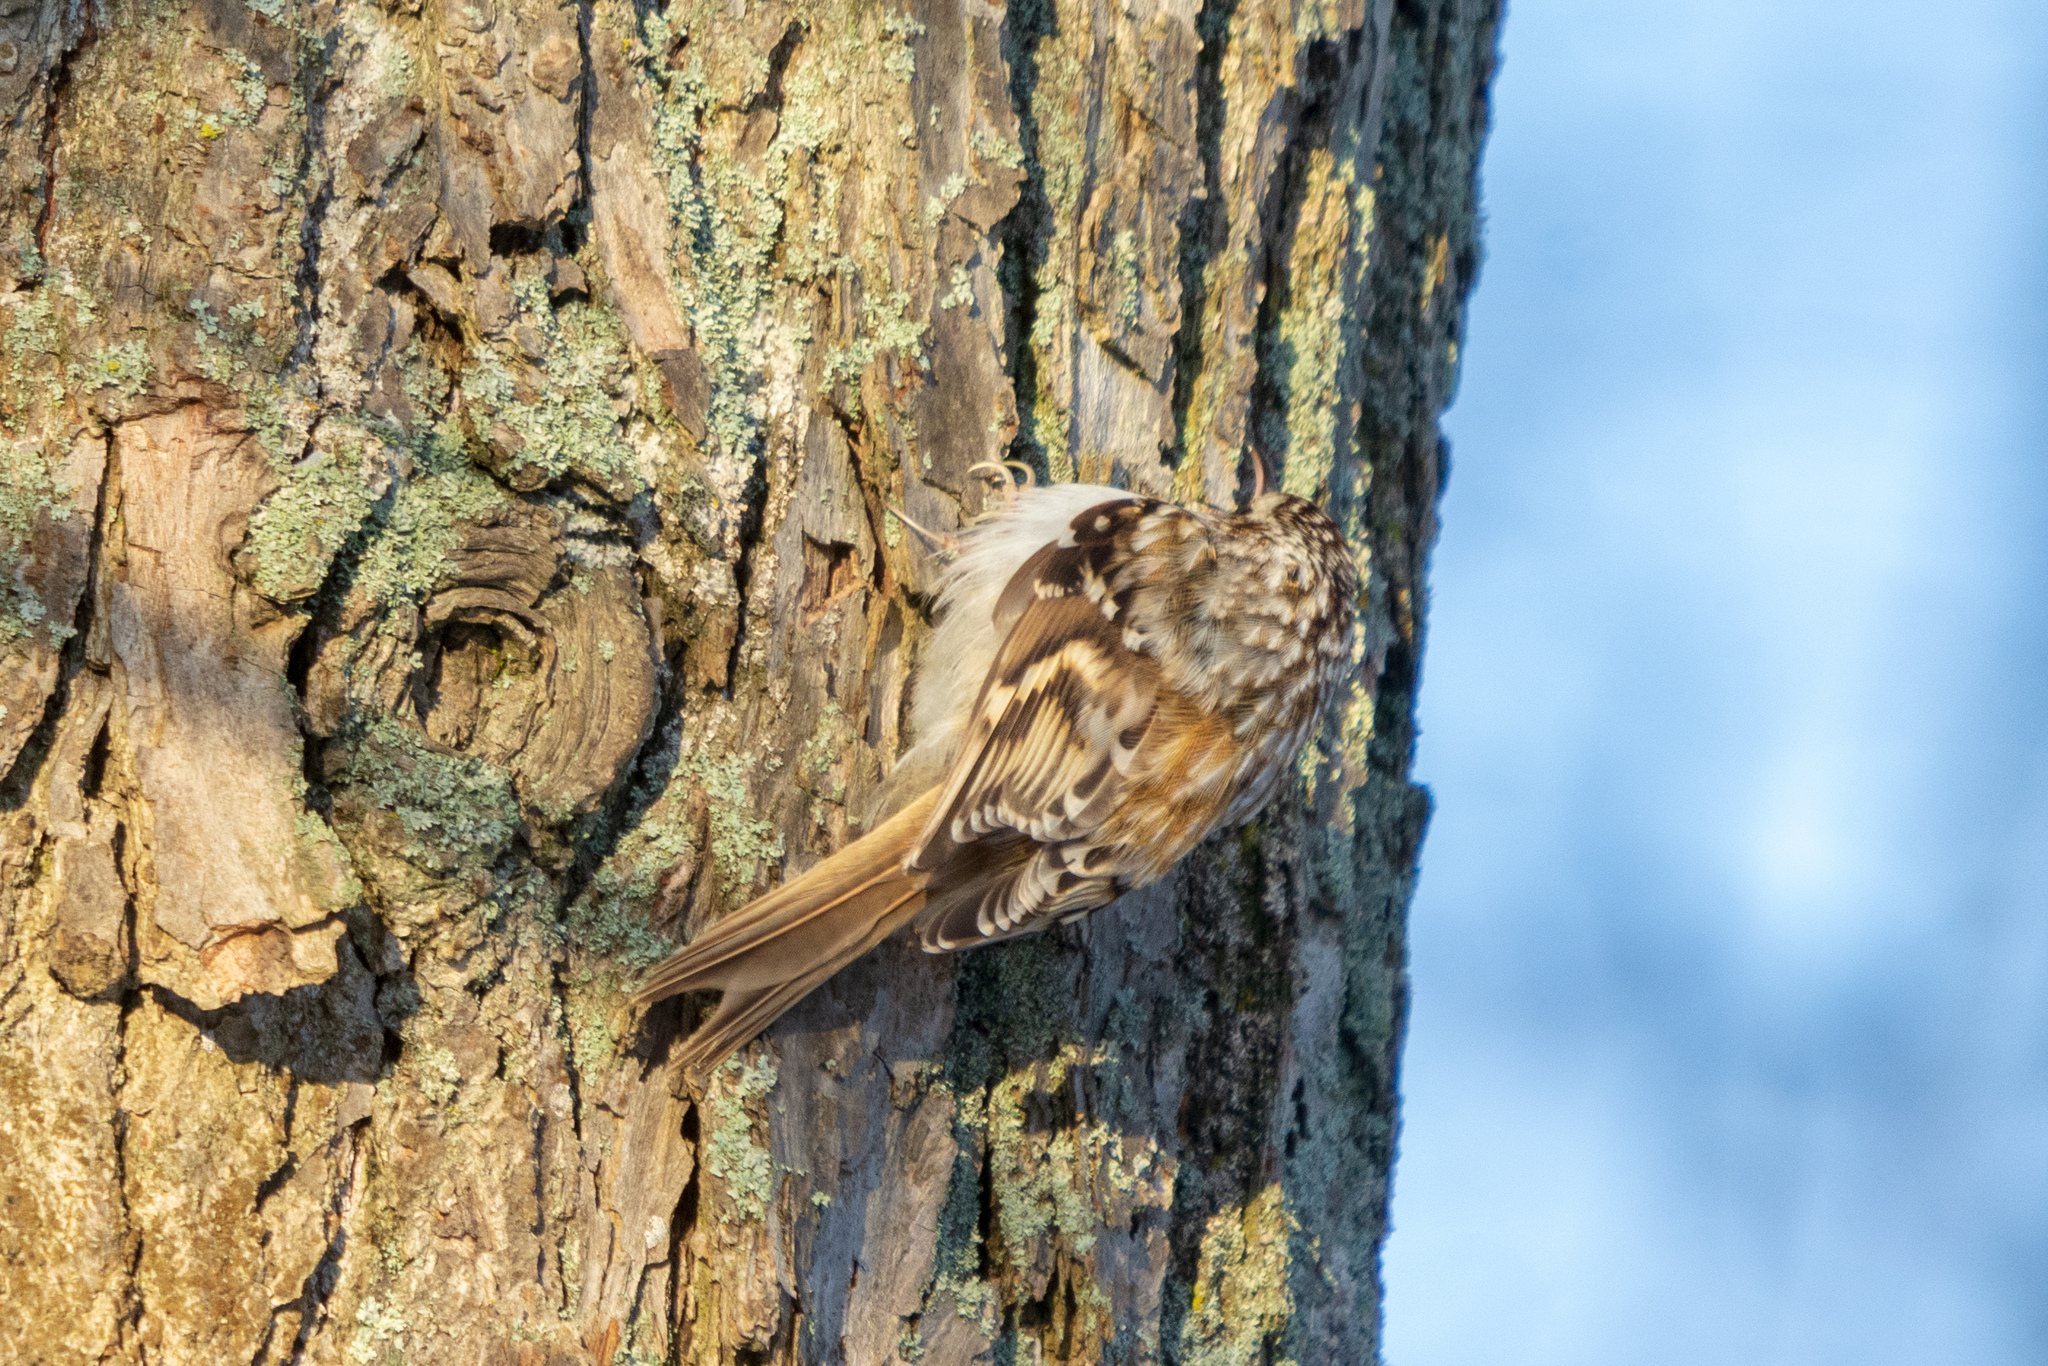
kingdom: Animalia
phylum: Chordata
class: Aves
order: Passeriformes
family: Certhiidae
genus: Certhia
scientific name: Certhia familiaris
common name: Eurasian treecreeper
